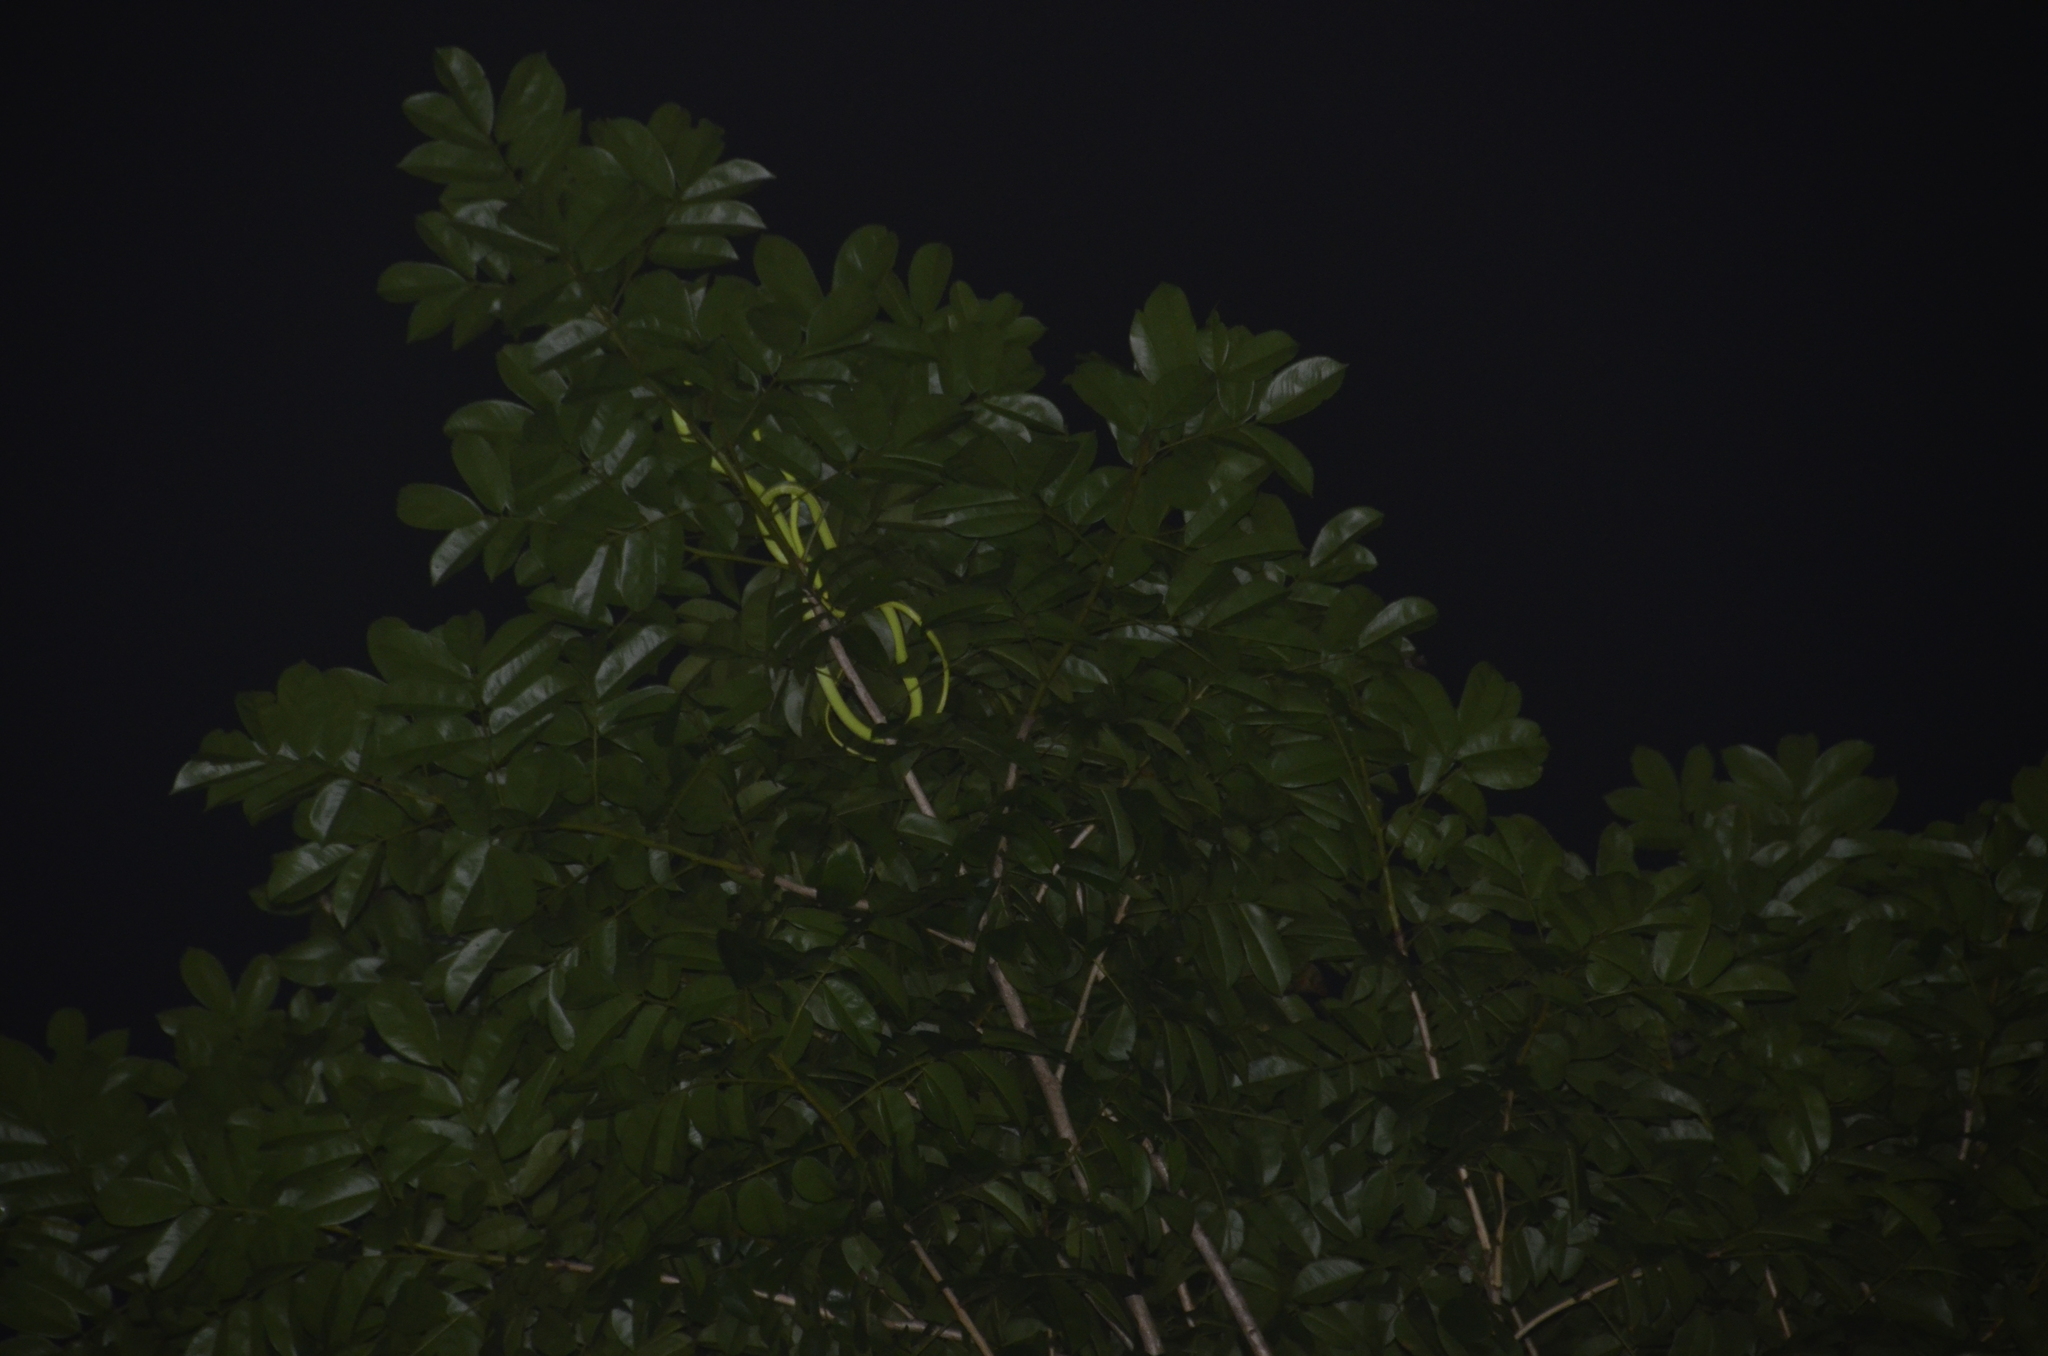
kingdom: Animalia
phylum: Chordata
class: Squamata
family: Colubridae
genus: Oxybelis
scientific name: Oxybelis fulgidus
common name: Green vine snake
